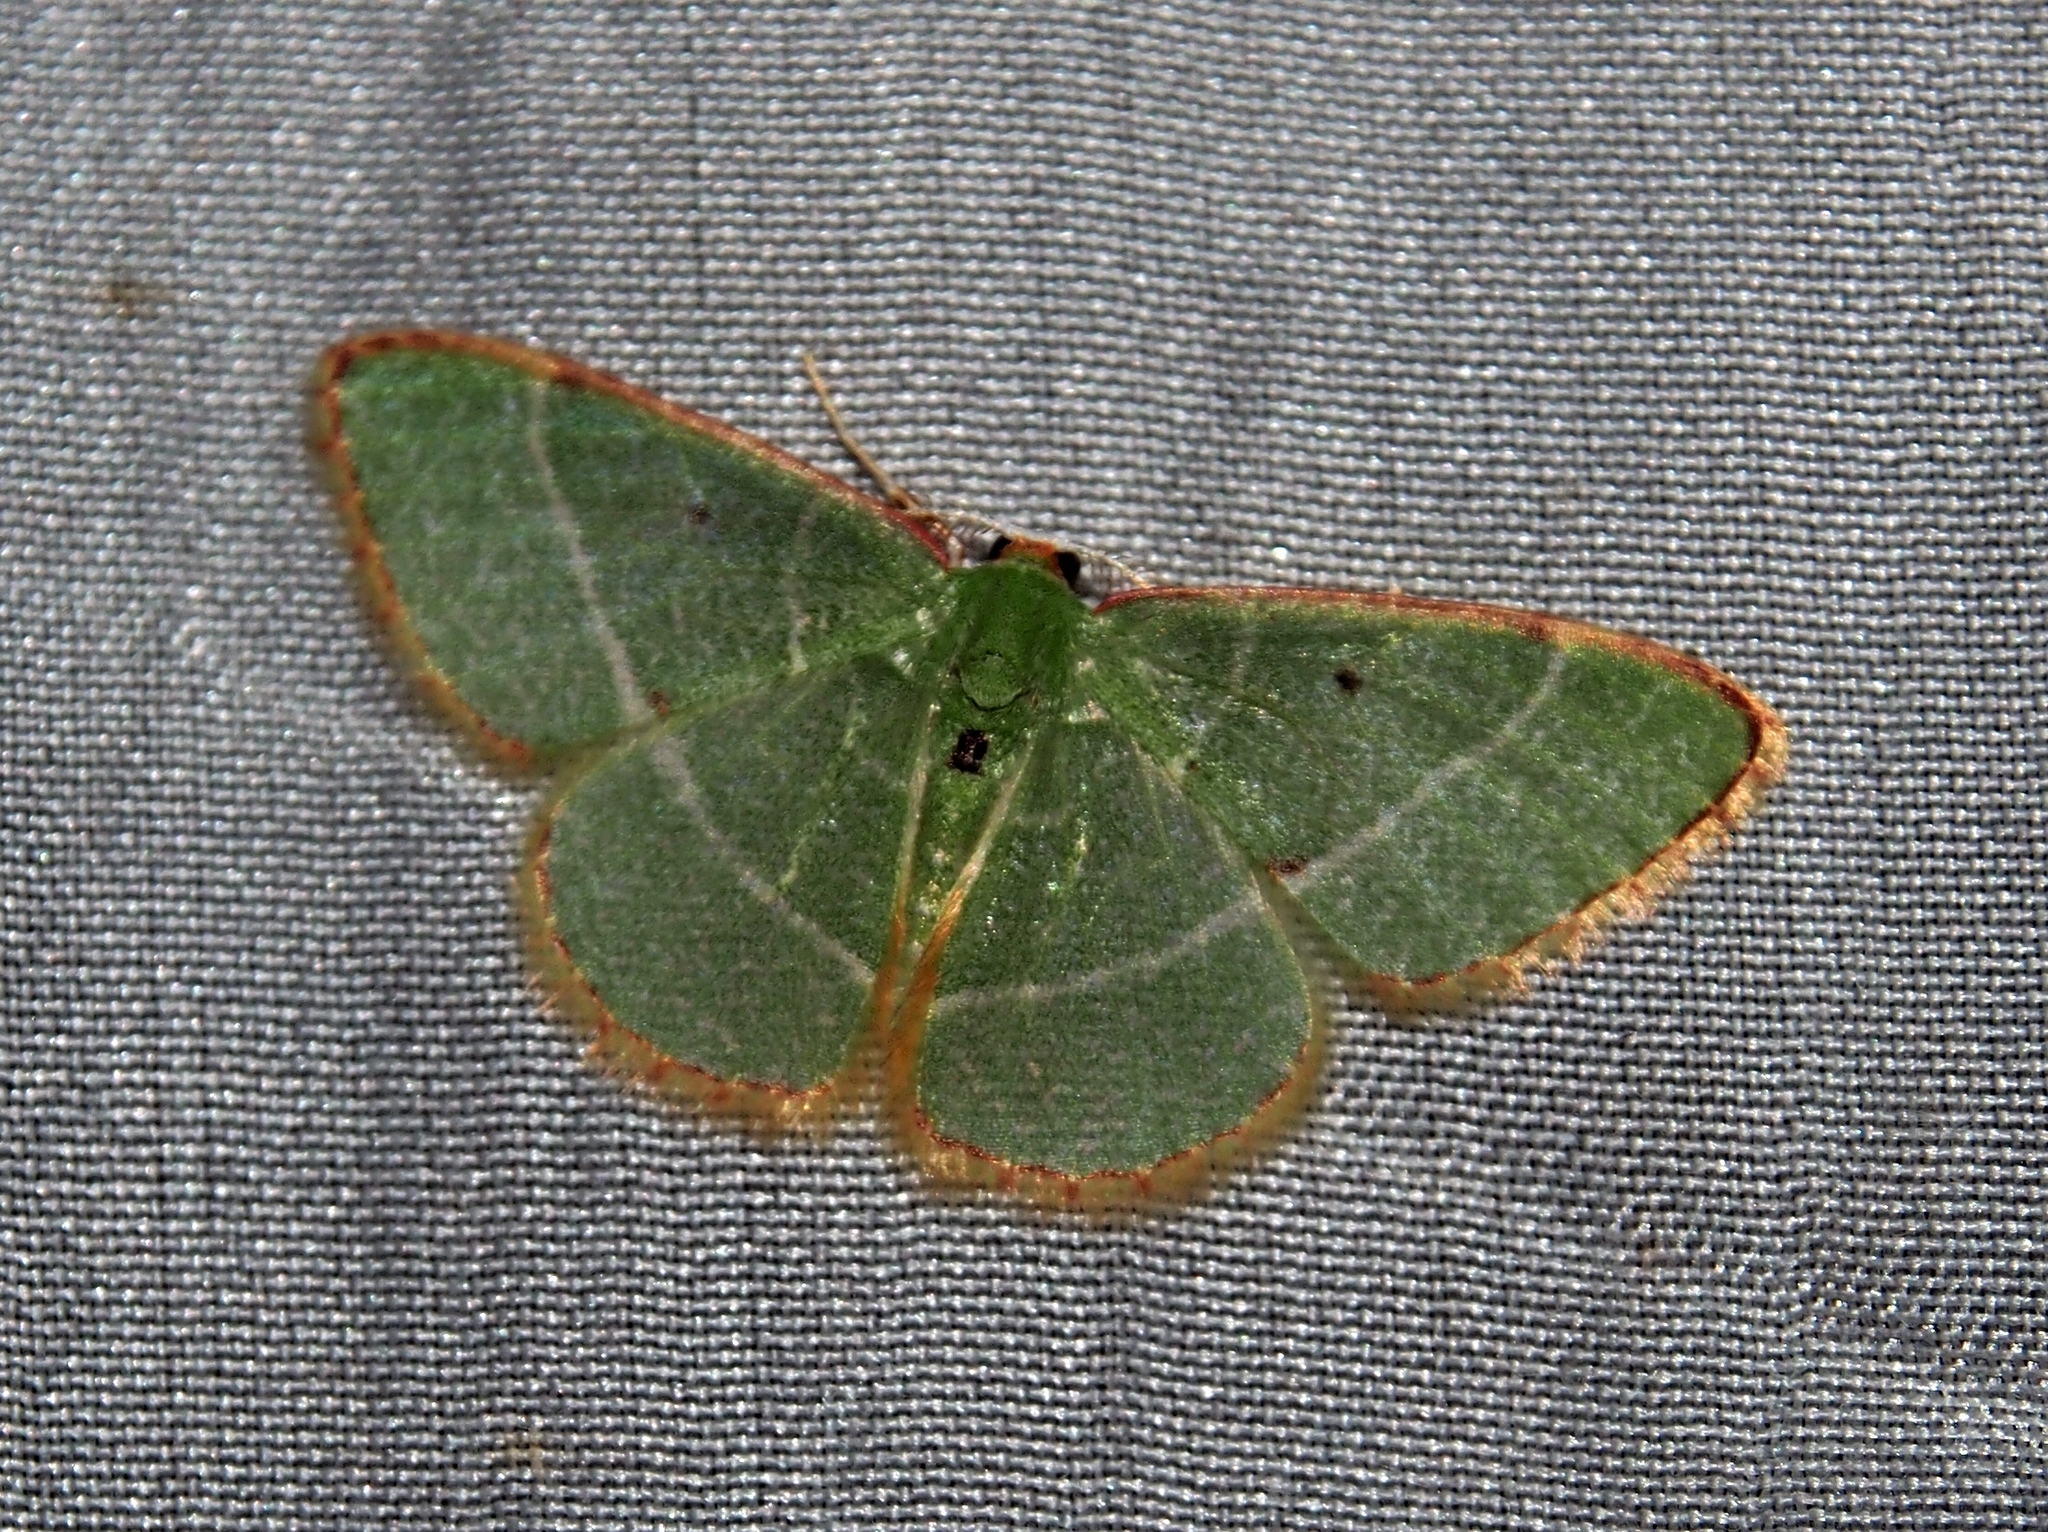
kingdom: Animalia
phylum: Arthropoda
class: Insecta
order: Lepidoptera
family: Geometridae
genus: Nemoria
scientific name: Nemoria vermiculata
